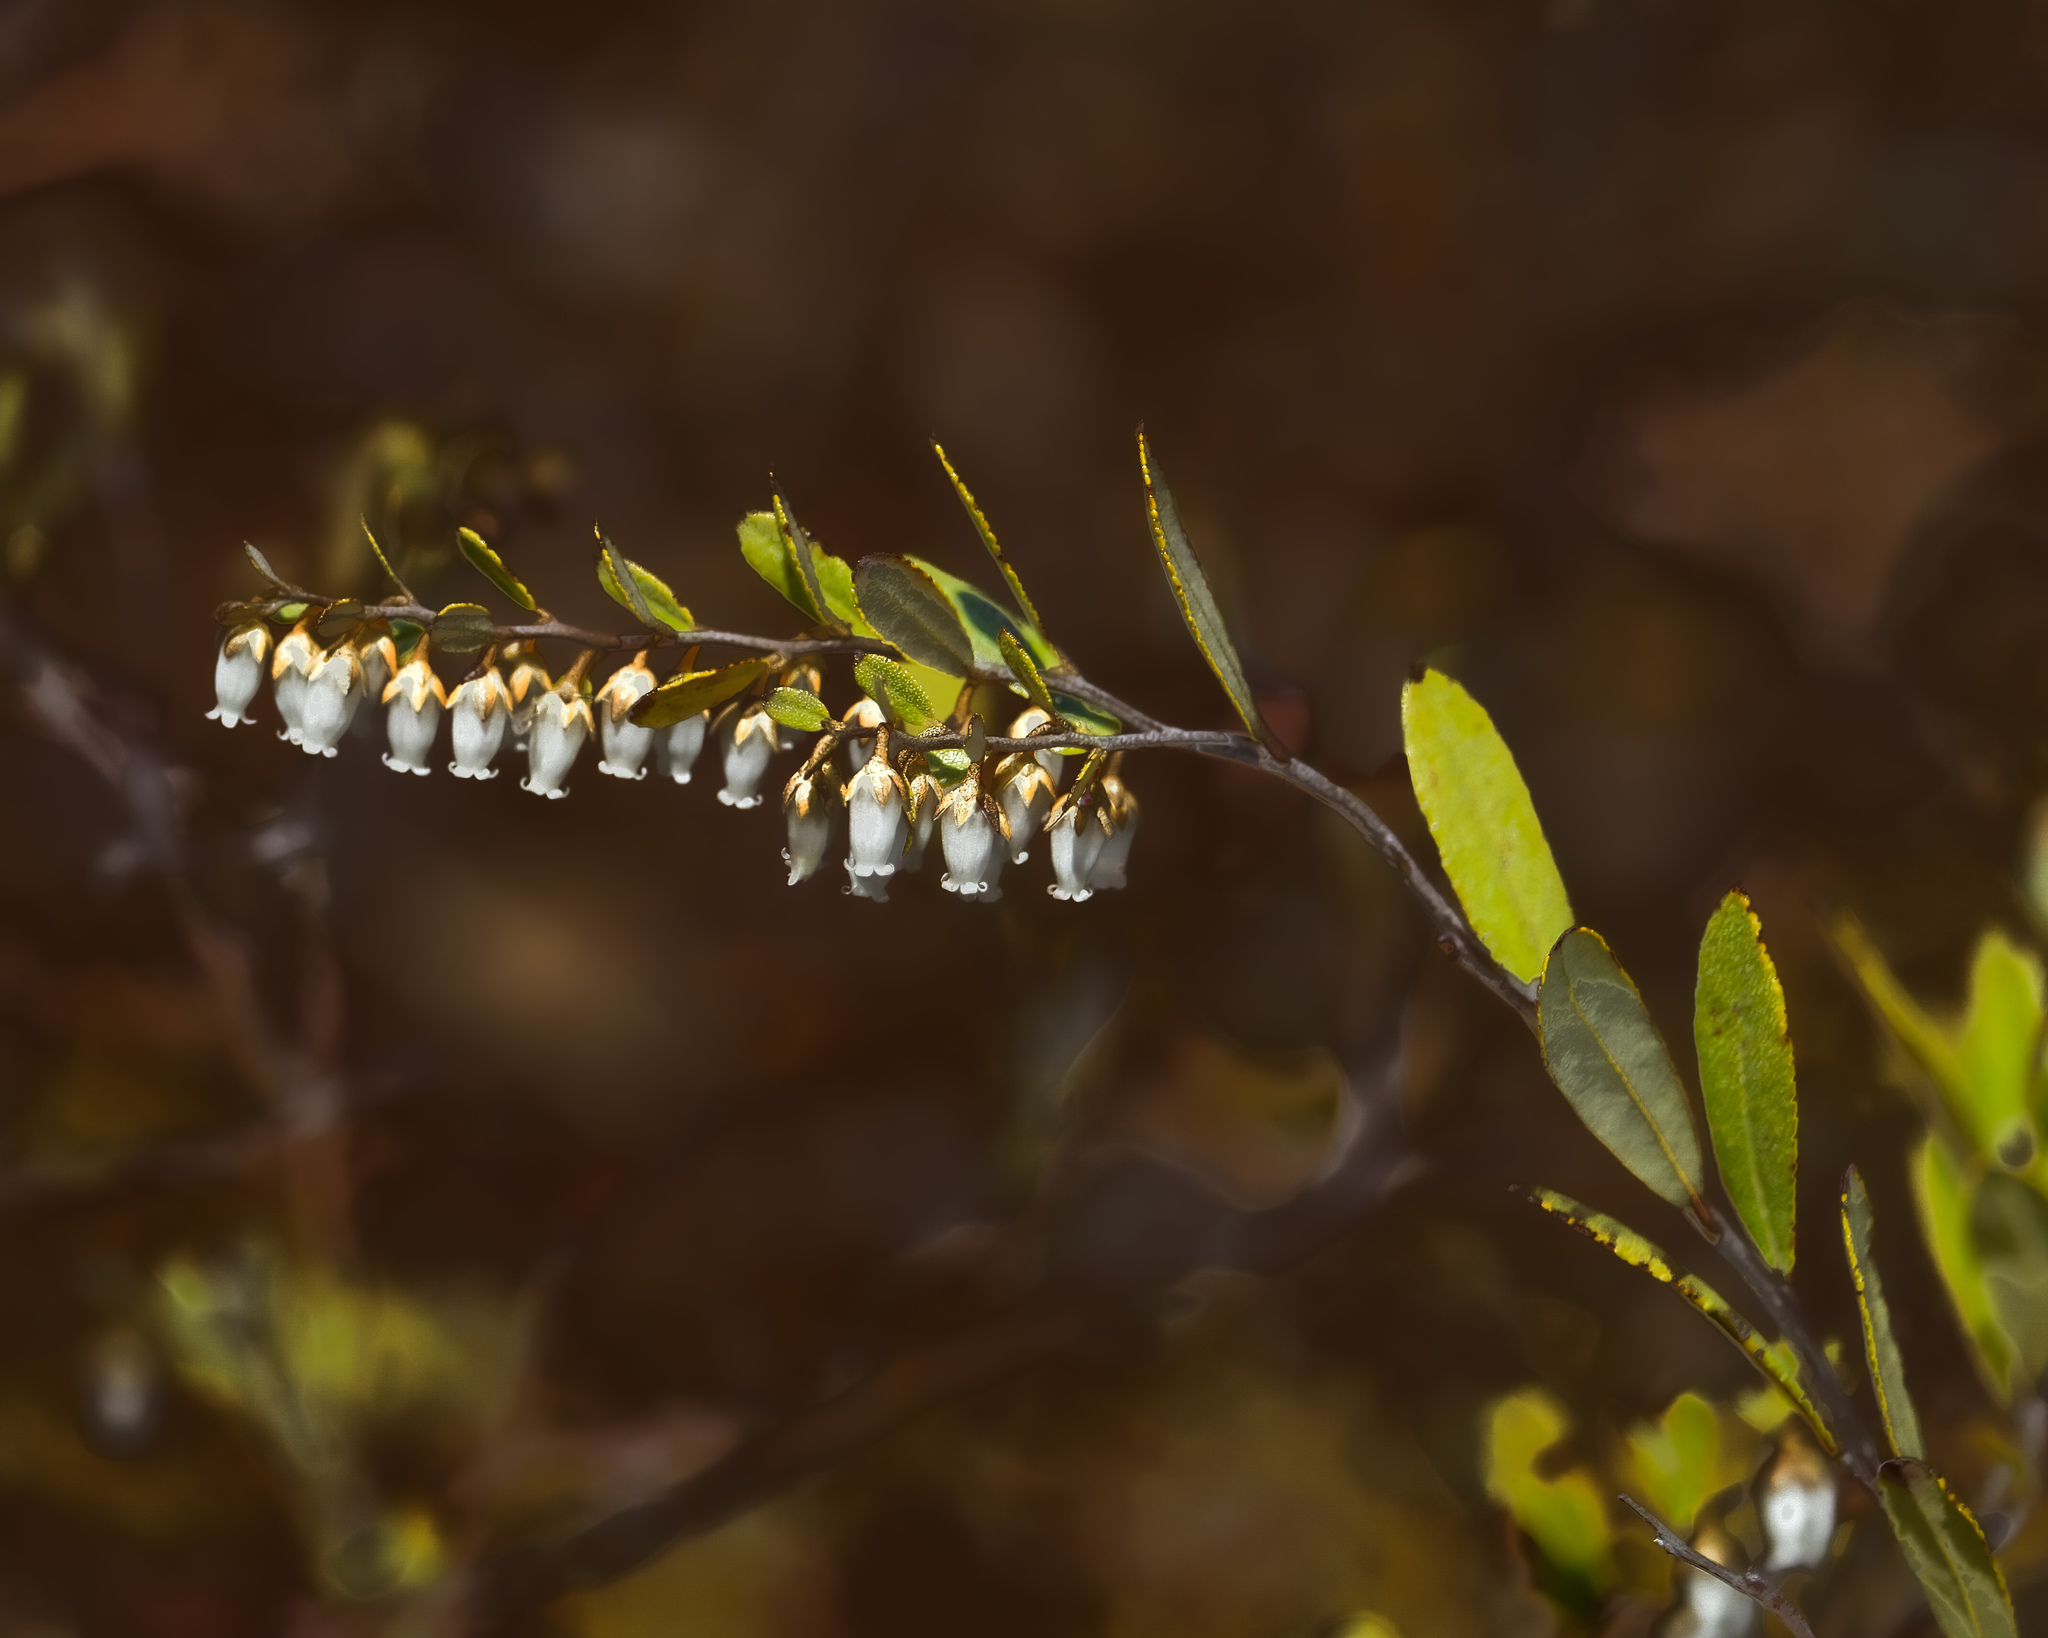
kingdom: Plantae
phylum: Tracheophyta
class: Magnoliopsida
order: Ericales
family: Ericaceae
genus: Chamaedaphne
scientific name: Chamaedaphne calyculata
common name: Leatherleaf
